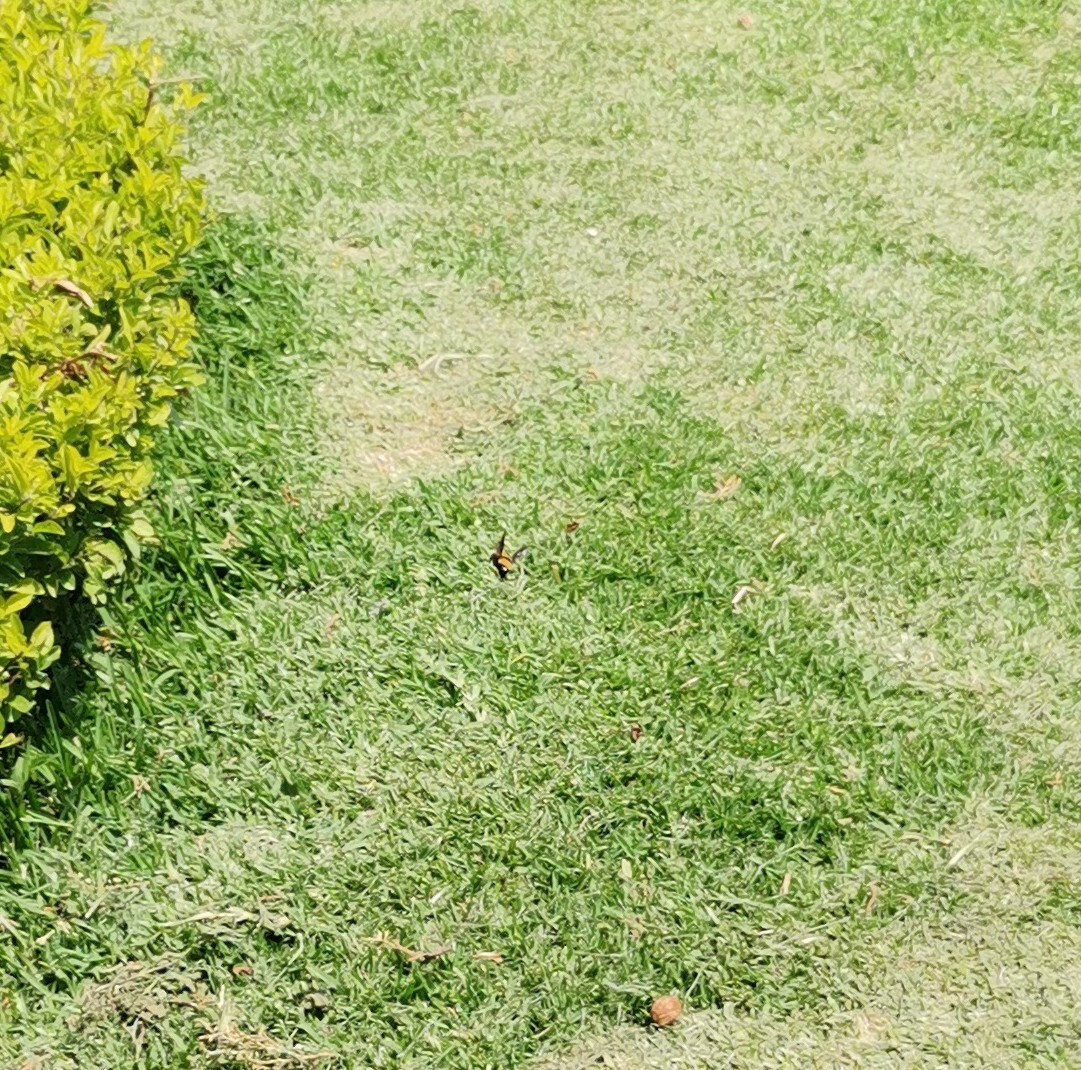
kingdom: Animalia
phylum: Arthropoda
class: Insecta
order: Hymenoptera
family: Apidae
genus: Bombus
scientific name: Bombus sonorus
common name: Sonoran bumble bee
